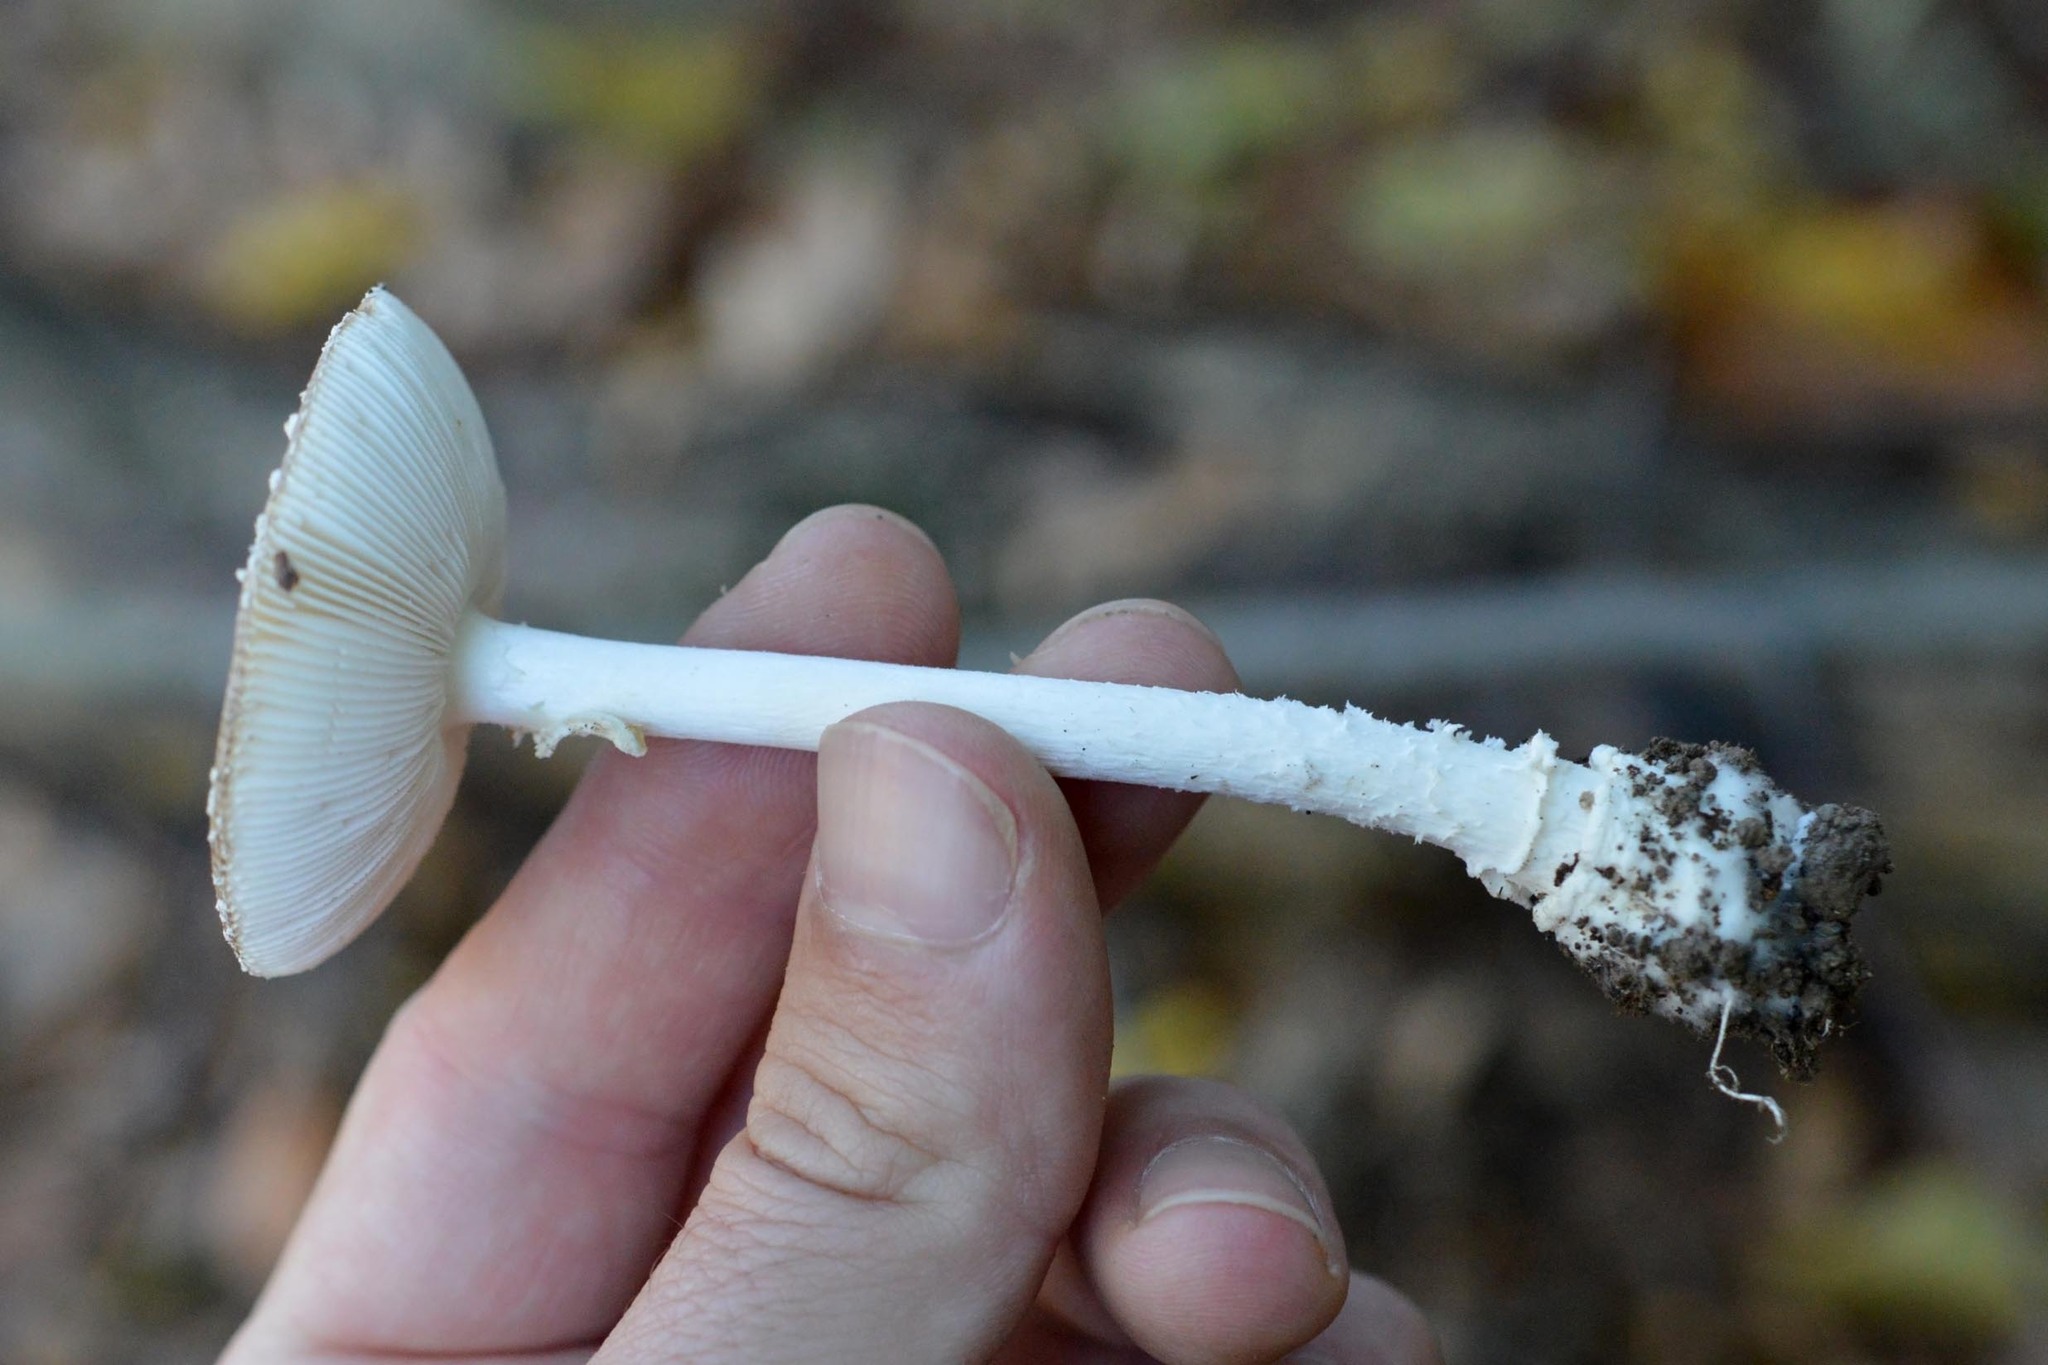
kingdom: Fungi
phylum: Basidiomycota
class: Agaricomycetes
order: Agaricales
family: Amanitaceae
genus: Amanita
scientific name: Amanita pantherina
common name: Panthercap
